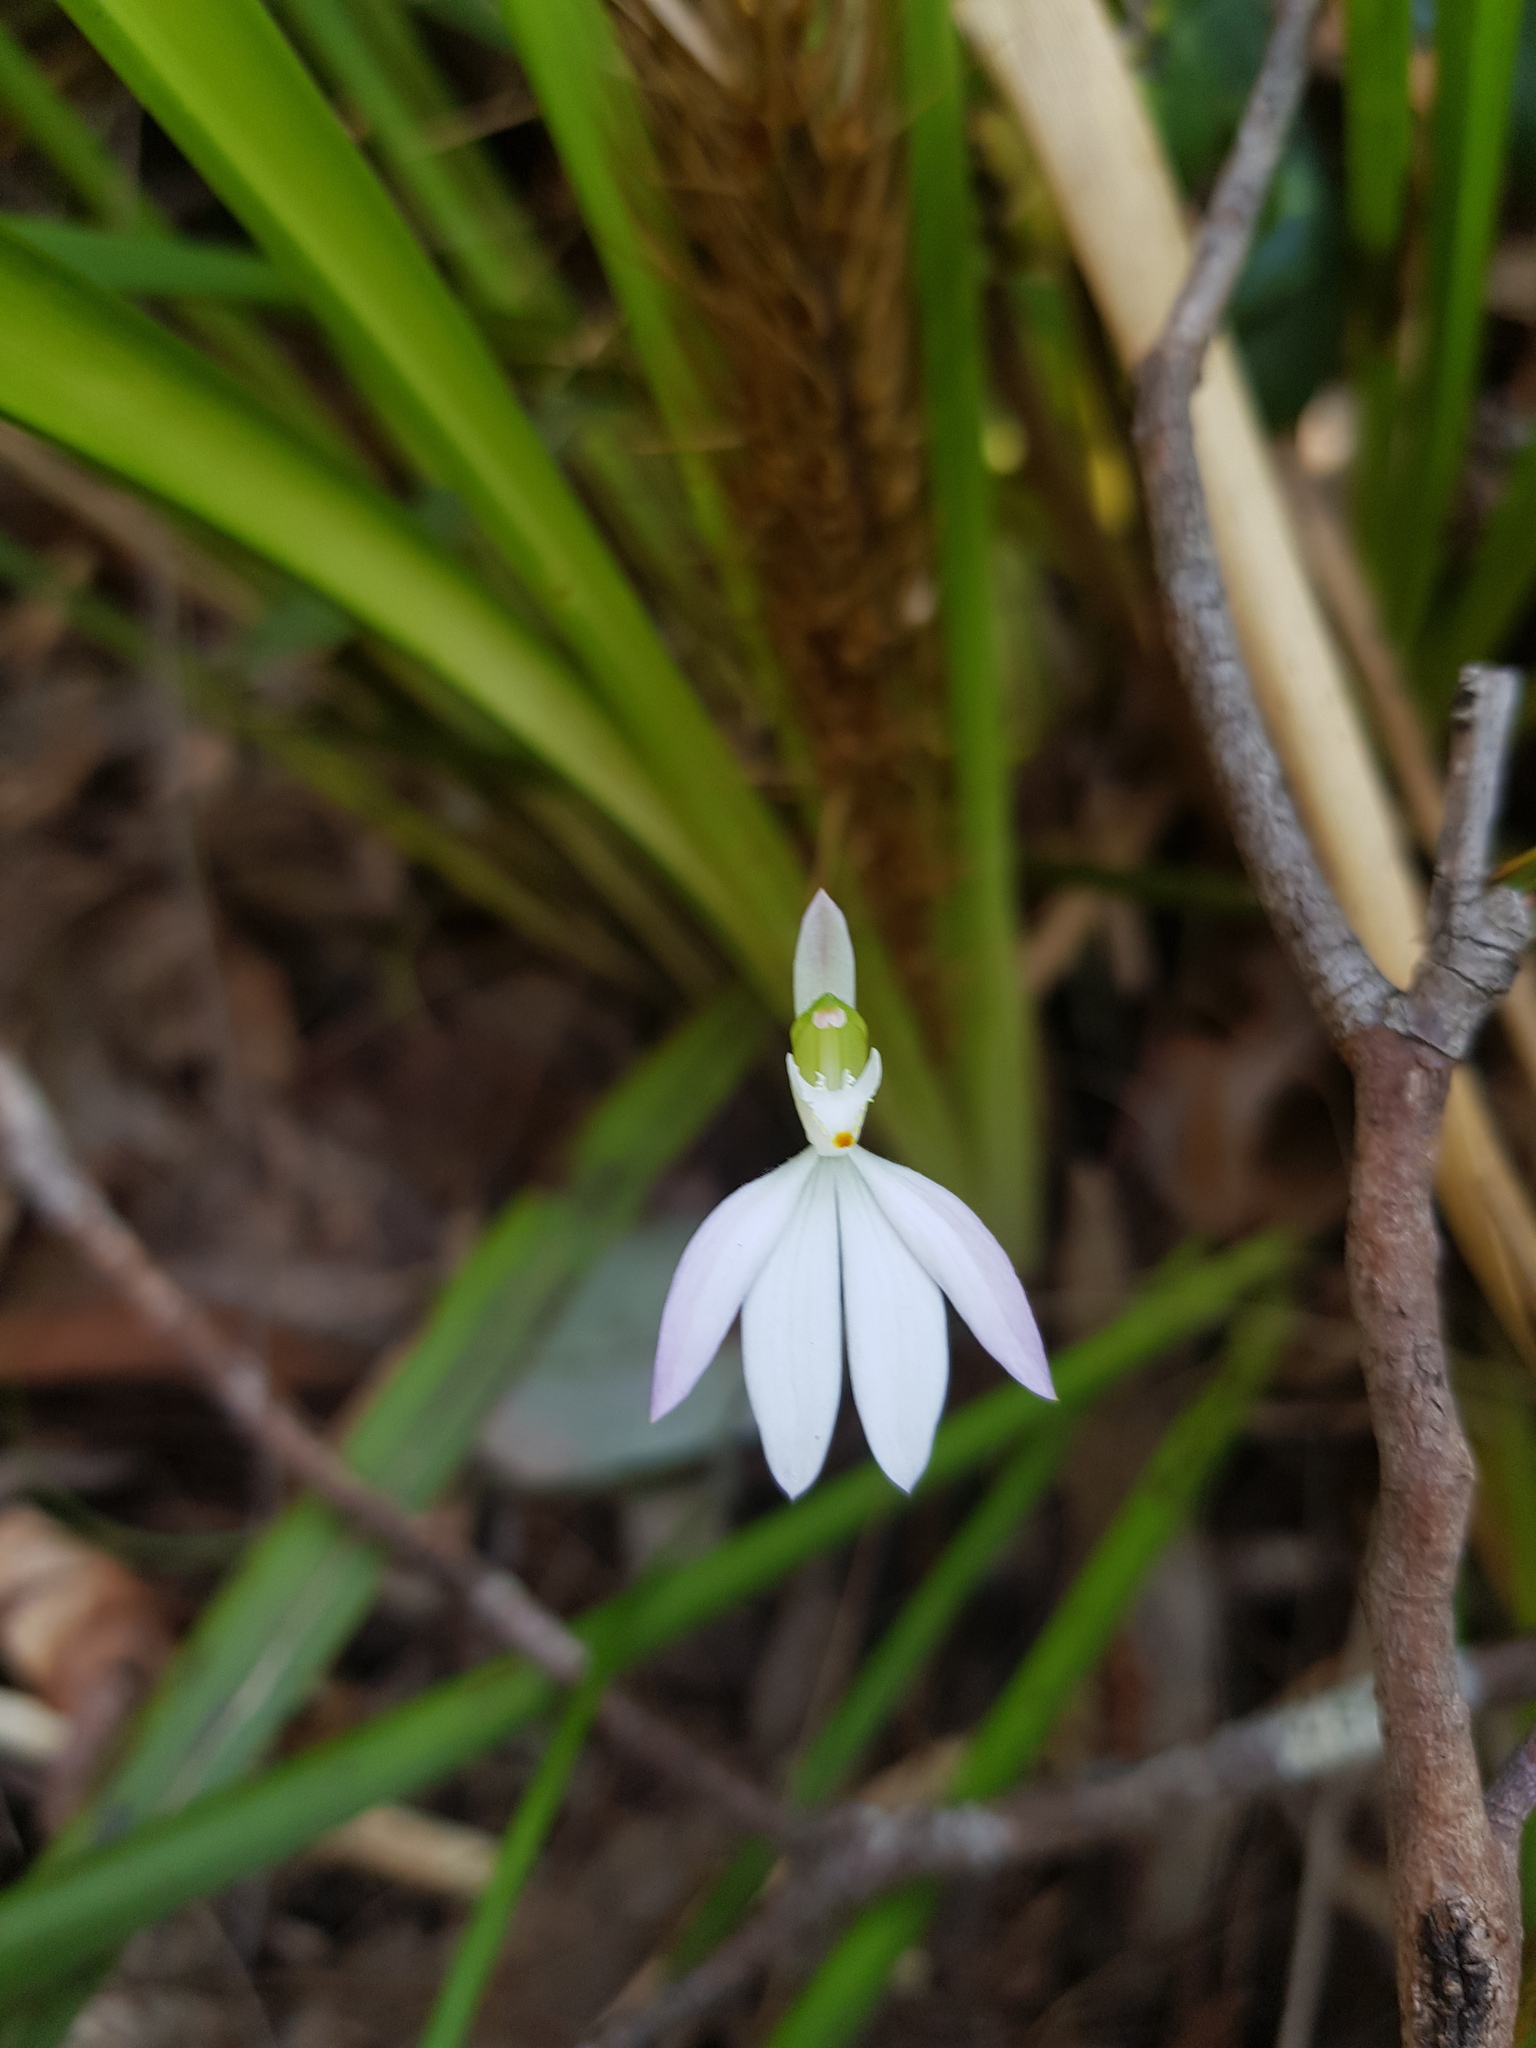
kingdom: Plantae
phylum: Tracheophyta
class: Liliopsida
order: Asparagales
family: Orchidaceae
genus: Caladenia
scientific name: Caladenia catenata
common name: White caladenia
